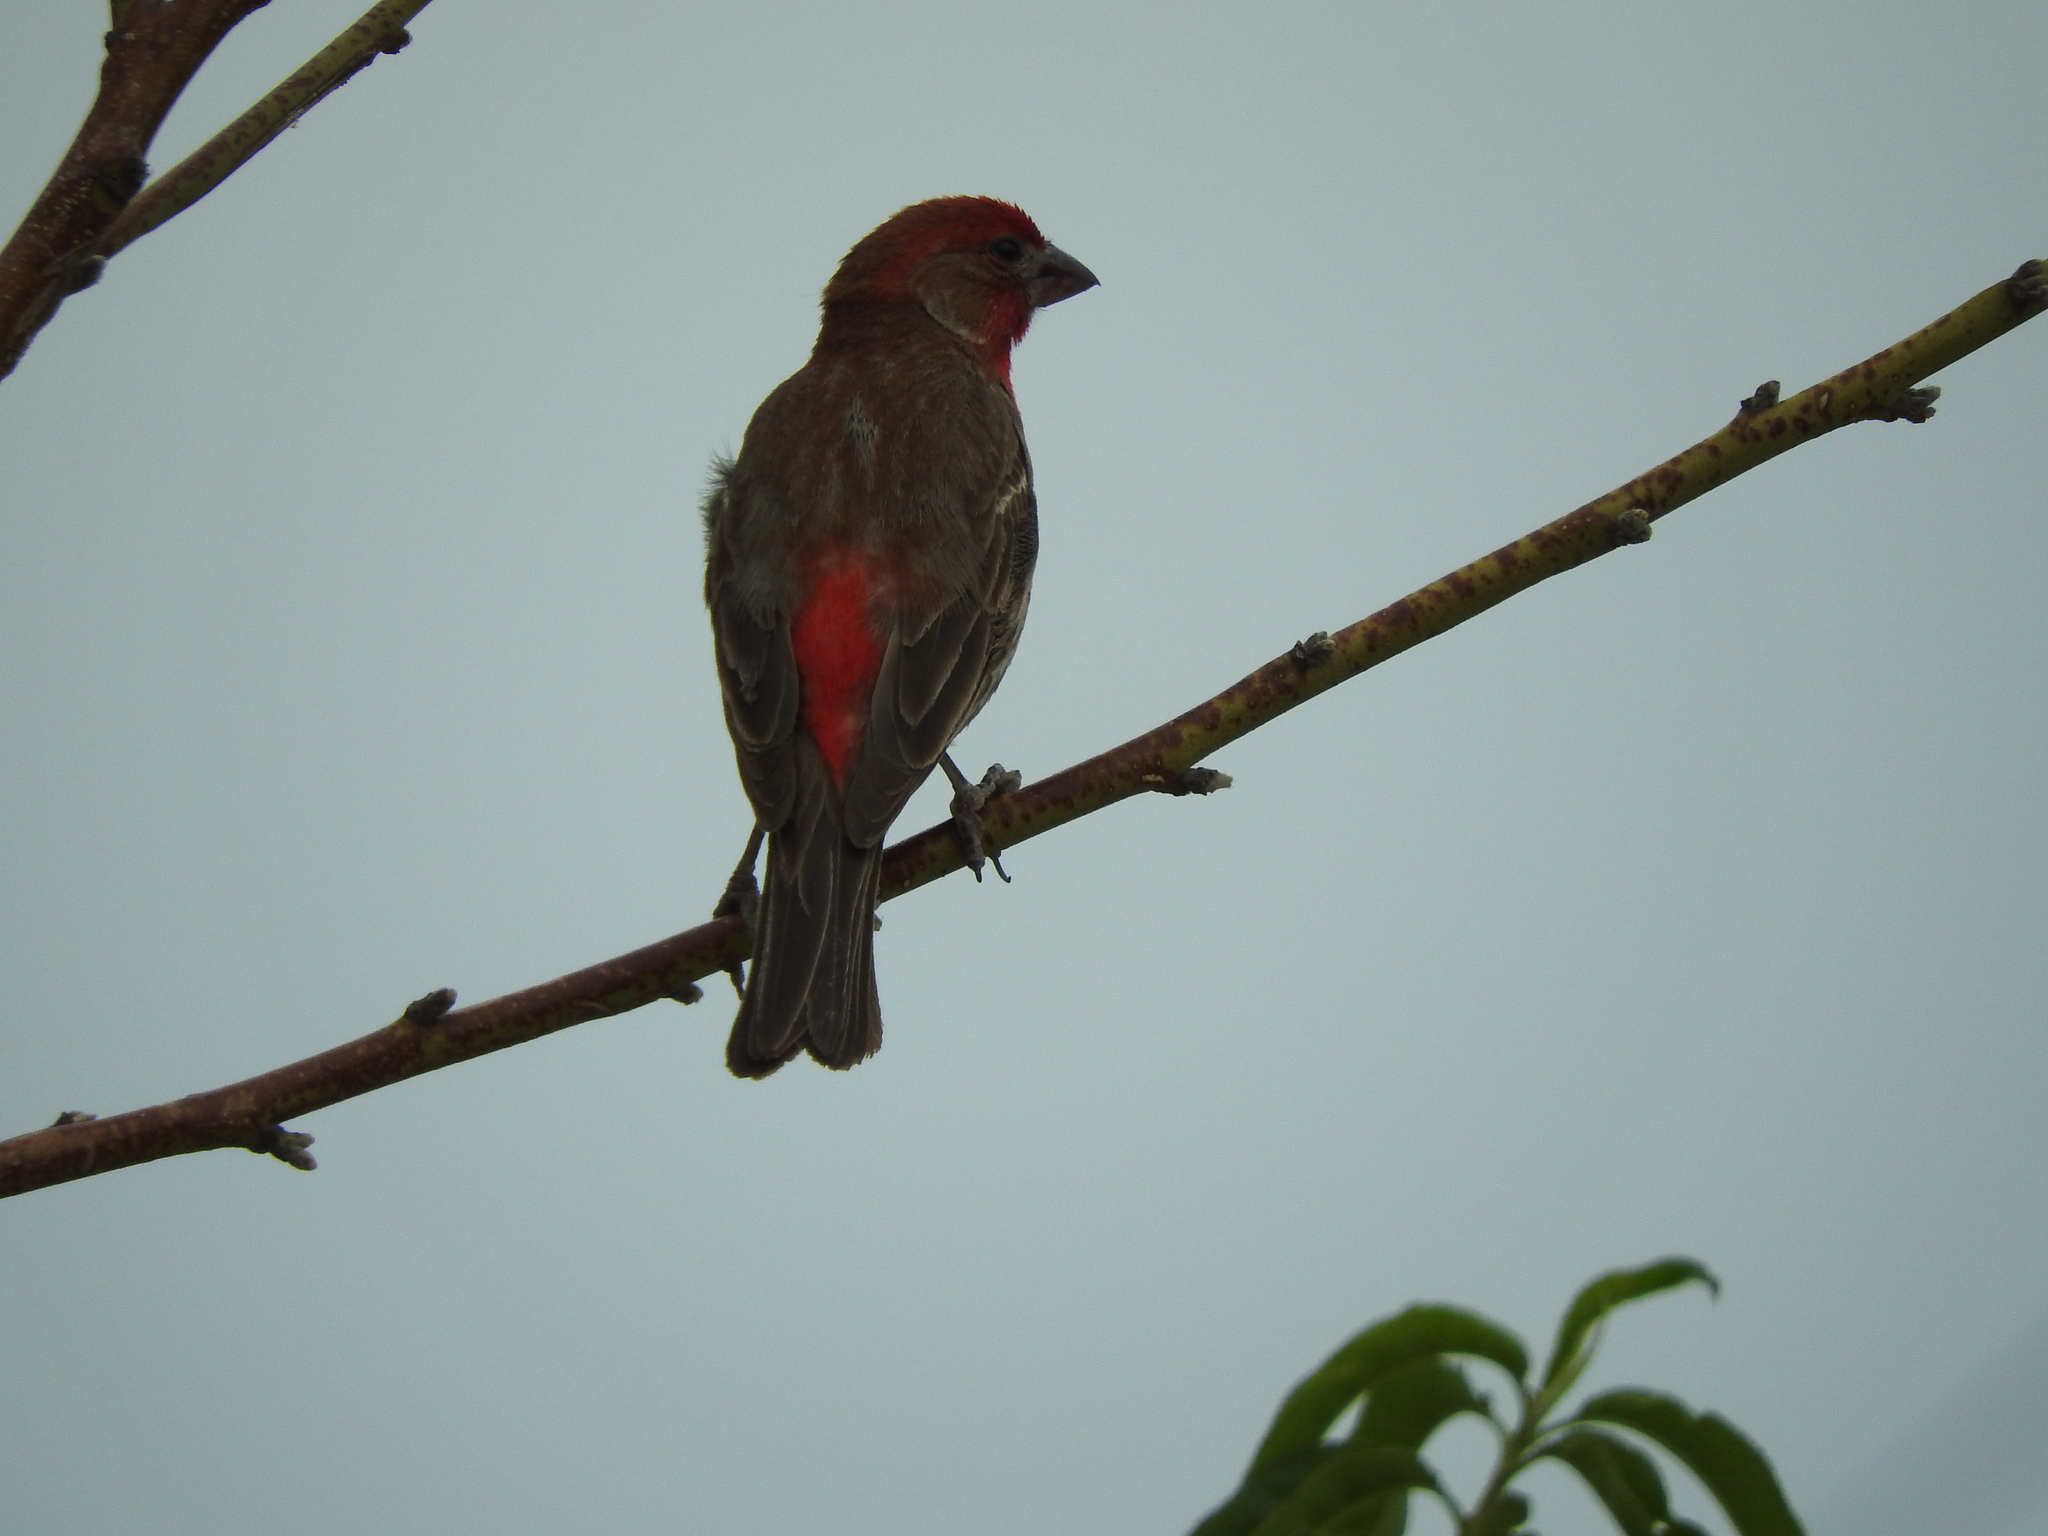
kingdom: Animalia
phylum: Chordata
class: Aves
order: Passeriformes
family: Fringillidae
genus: Haemorhous
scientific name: Haemorhous mexicanus
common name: House finch
